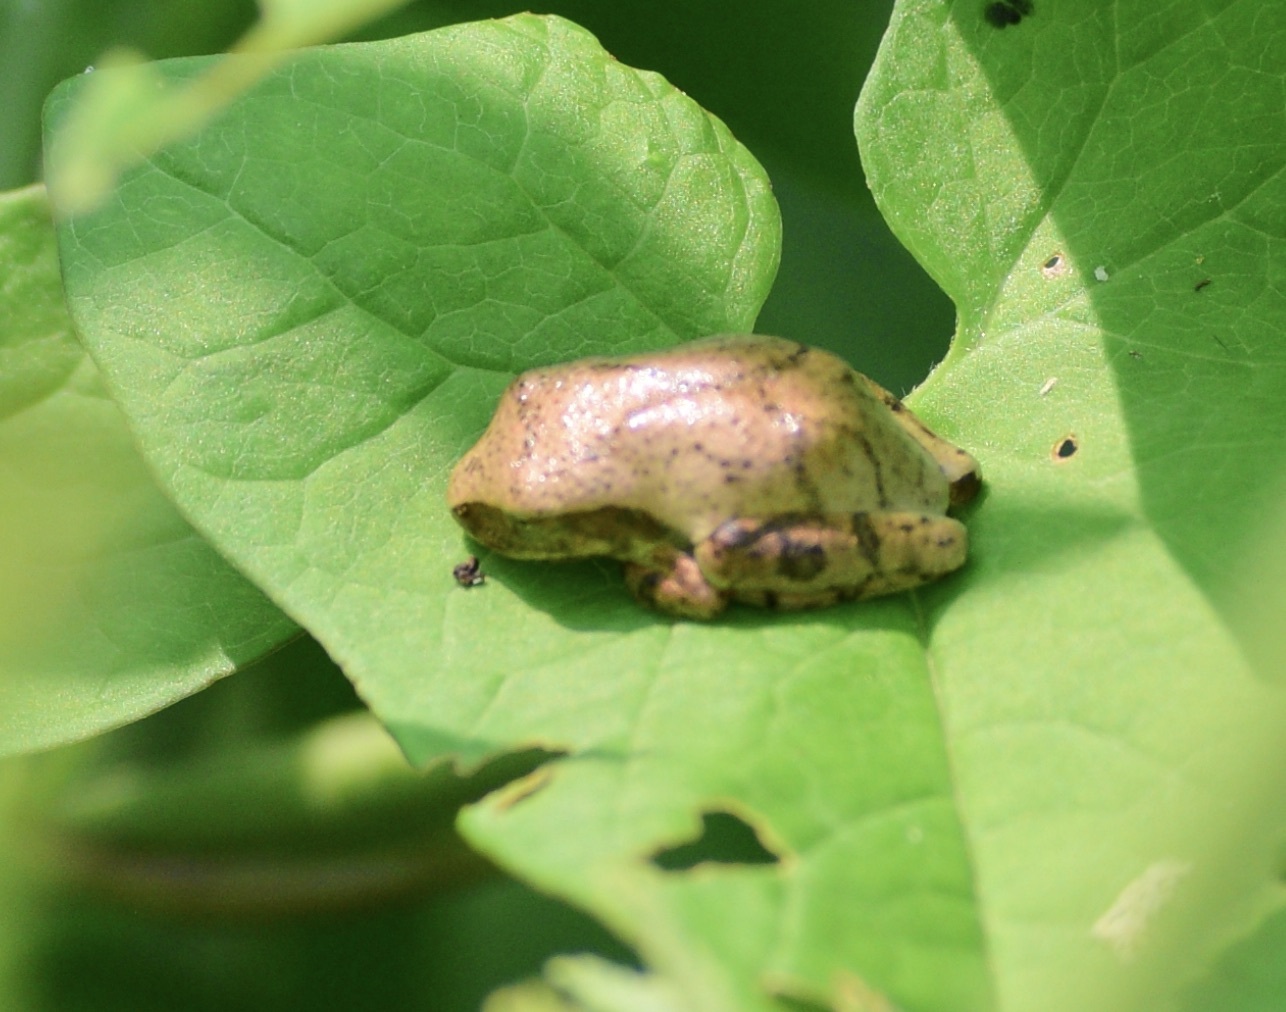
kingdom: Animalia
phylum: Chordata
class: Amphibia
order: Anura
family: Hylidae
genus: Pseudacris
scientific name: Pseudacris crucifer
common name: Spring peeper
